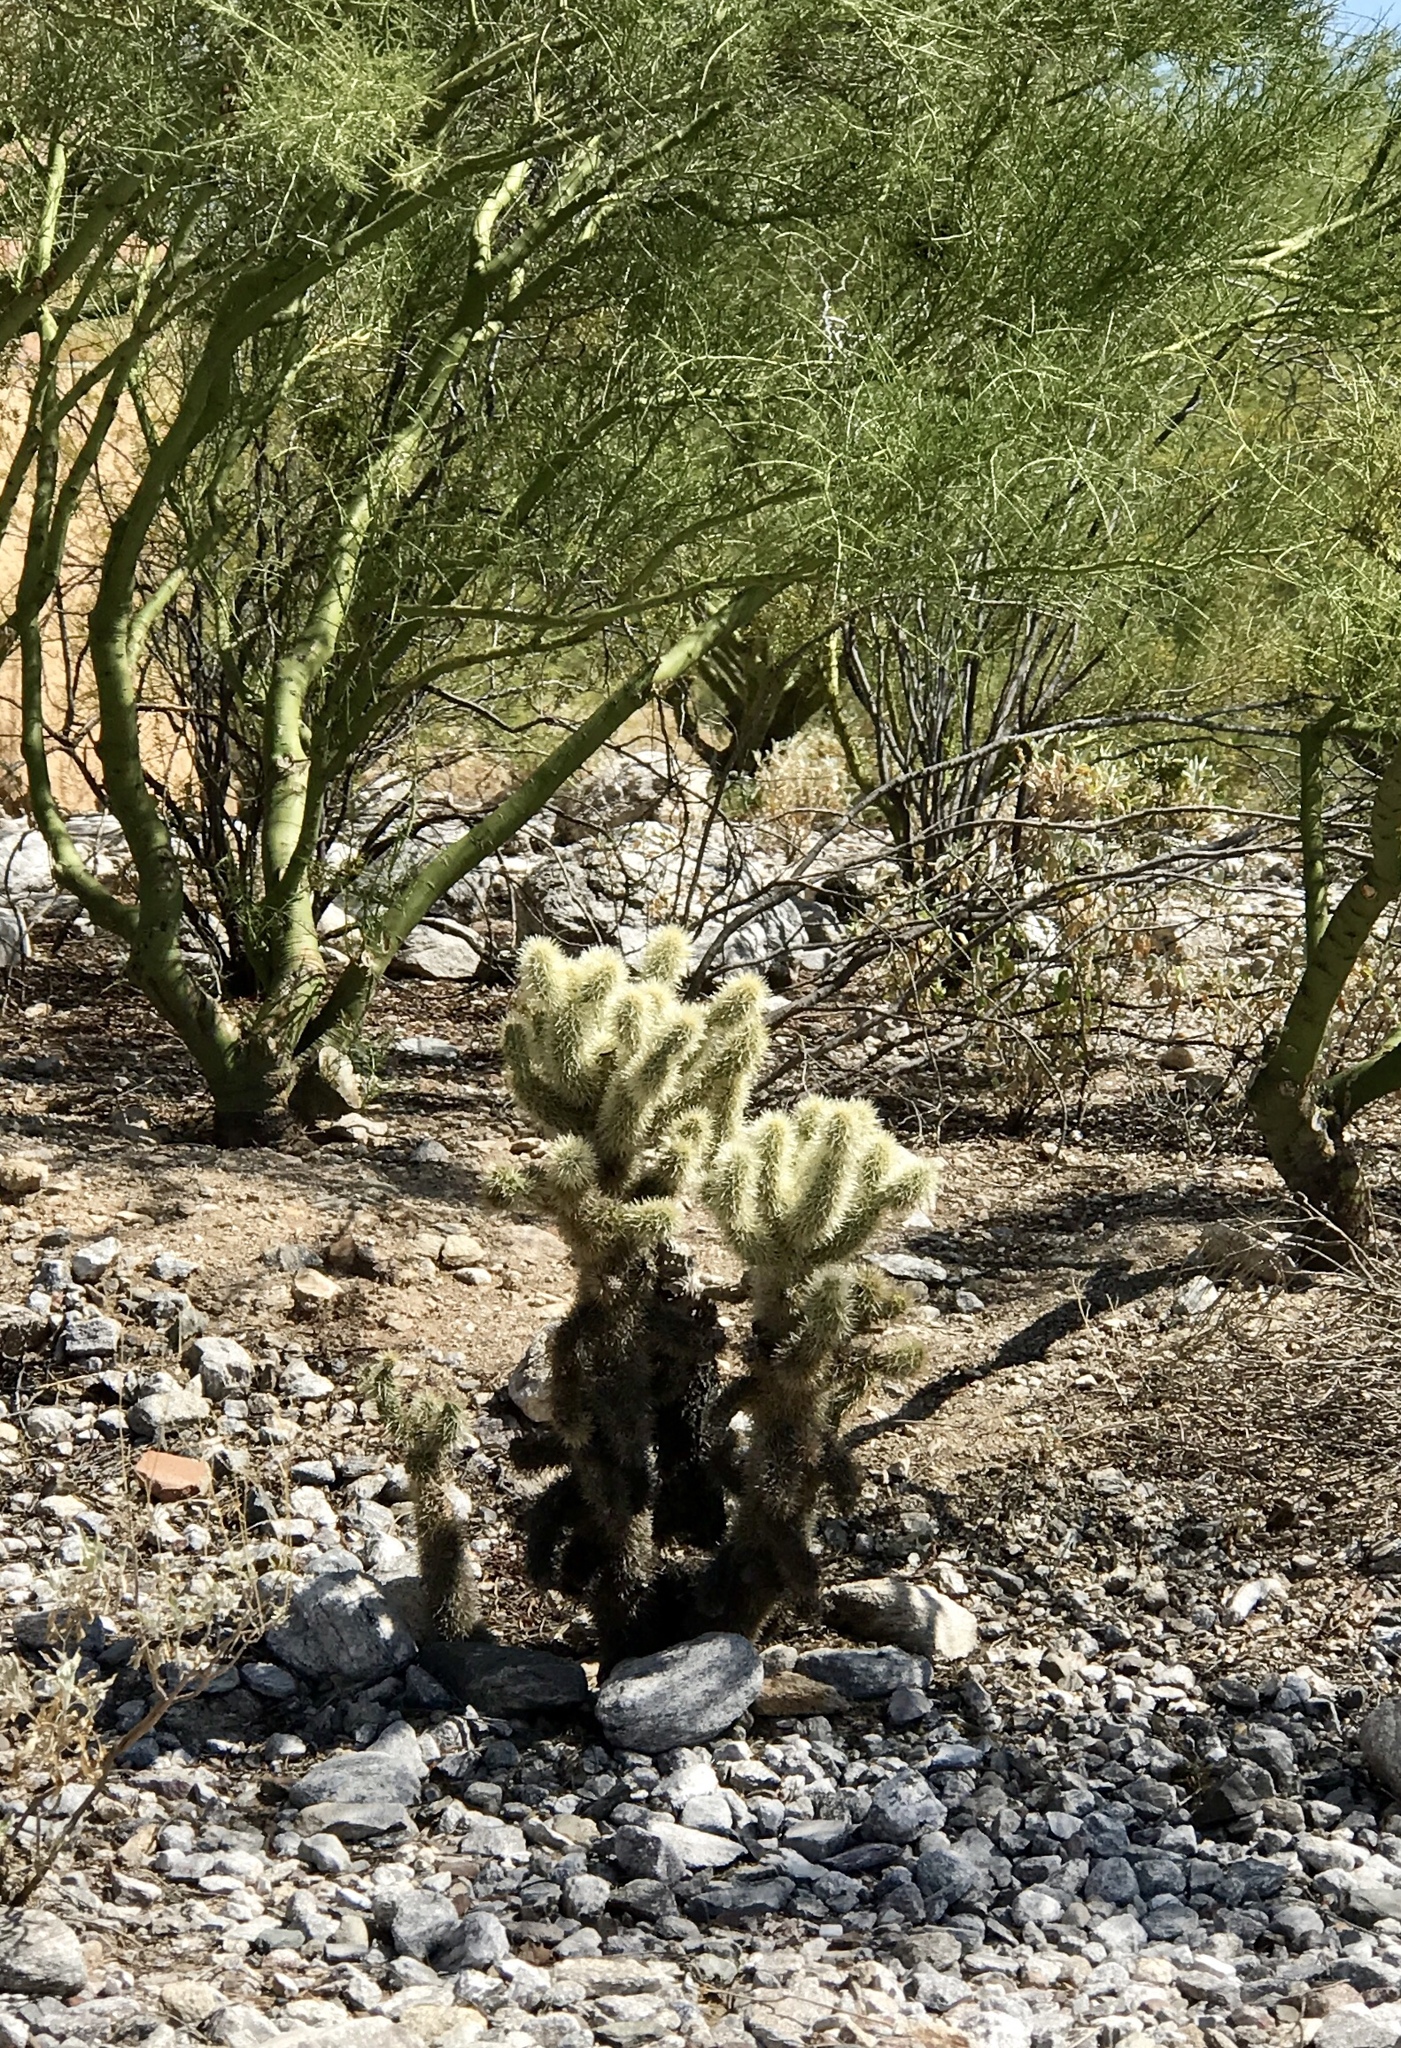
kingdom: Plantae
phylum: Tracheophyta
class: Magnoliopsida
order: Caryophyllales
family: Cactaceae
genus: Cylindropuntia
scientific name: Cylindropuntia fosbergii
